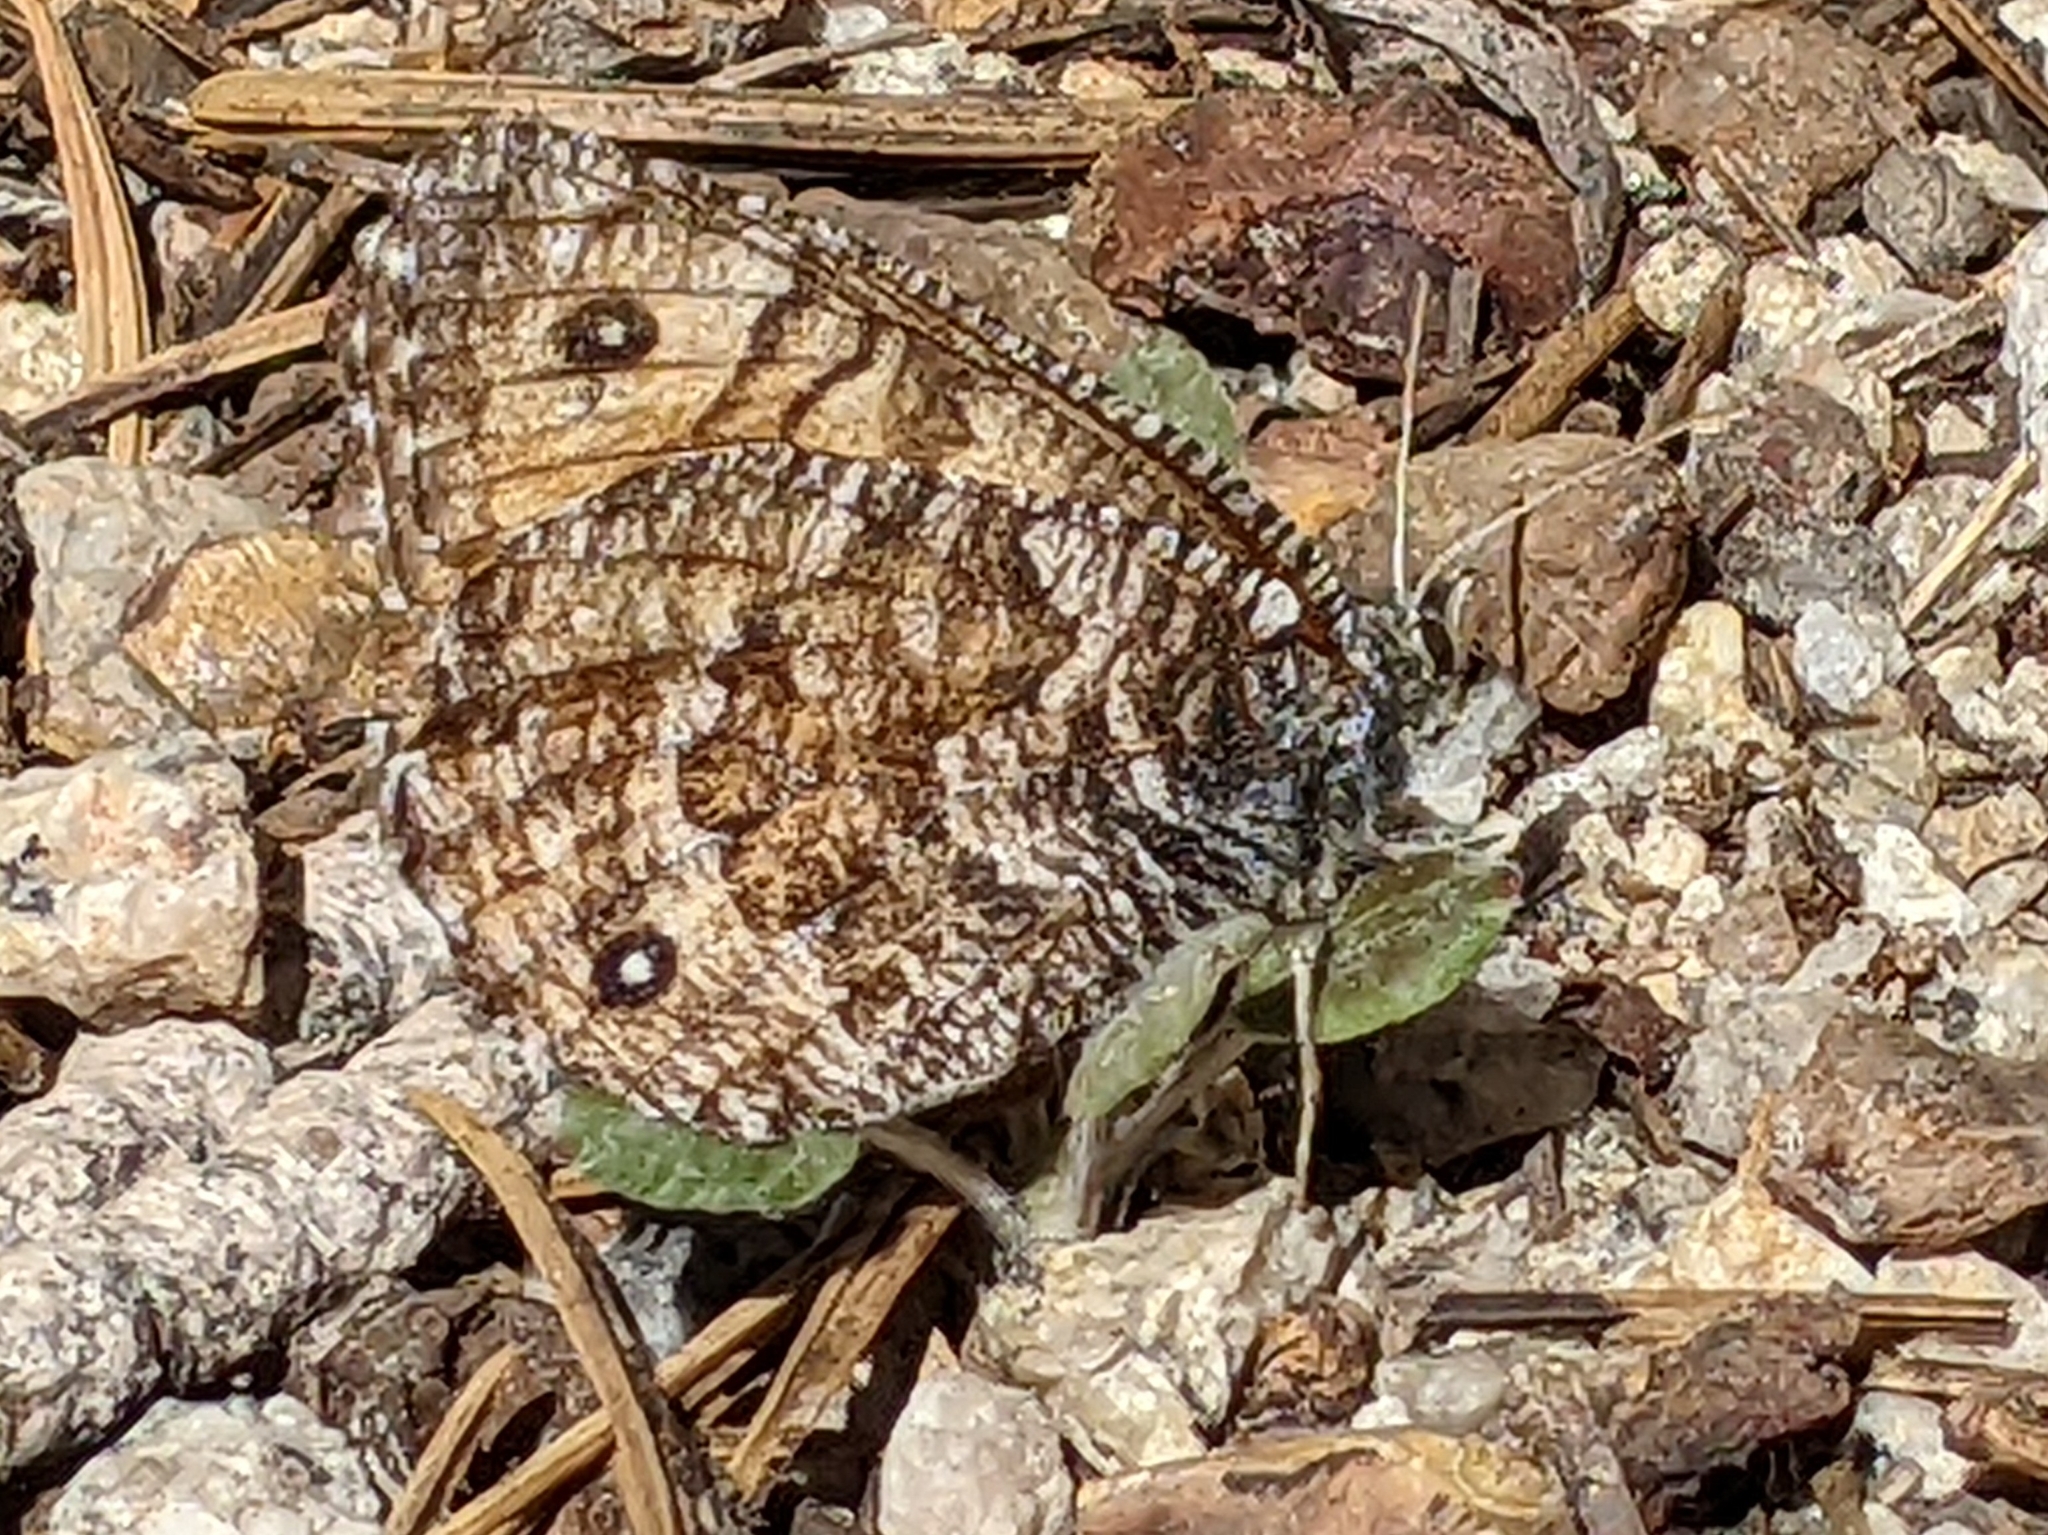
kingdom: Animalia
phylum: Arthropoda
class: Insecta
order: Lepidoptera
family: Nymphalidae
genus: Oeneis
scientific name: Oeneis chryxus
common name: Chryxus arctic
